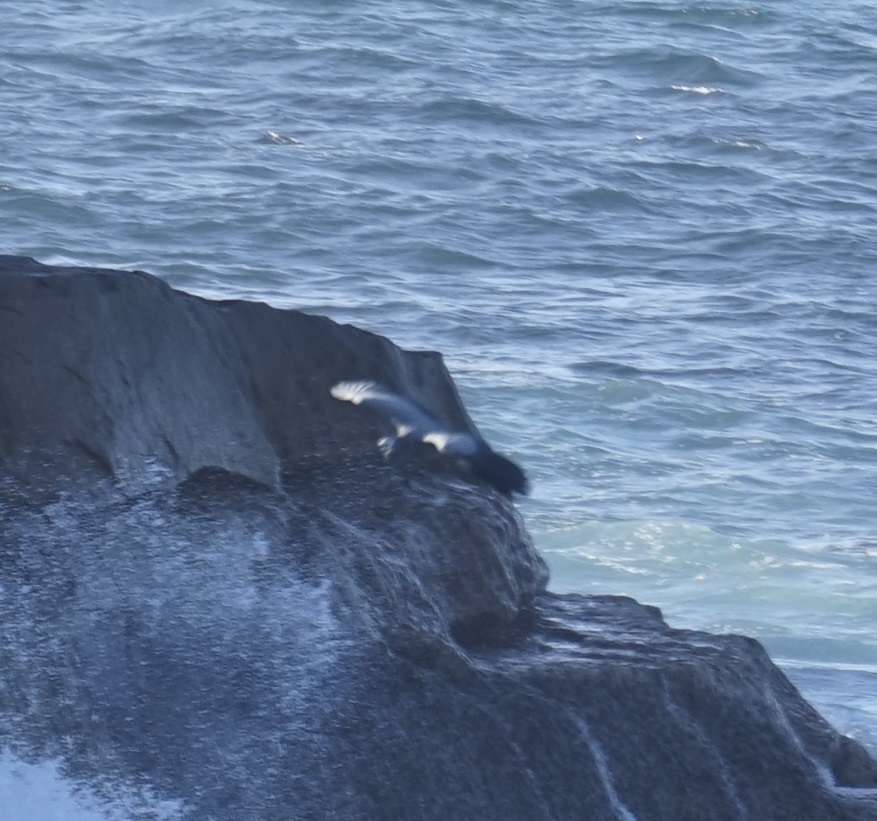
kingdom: Animalia
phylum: Chordata
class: Aves
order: Pelecaniformes
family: Ardeidae
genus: Egretta
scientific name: Egretta novaehollandiae
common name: White-faced heron
